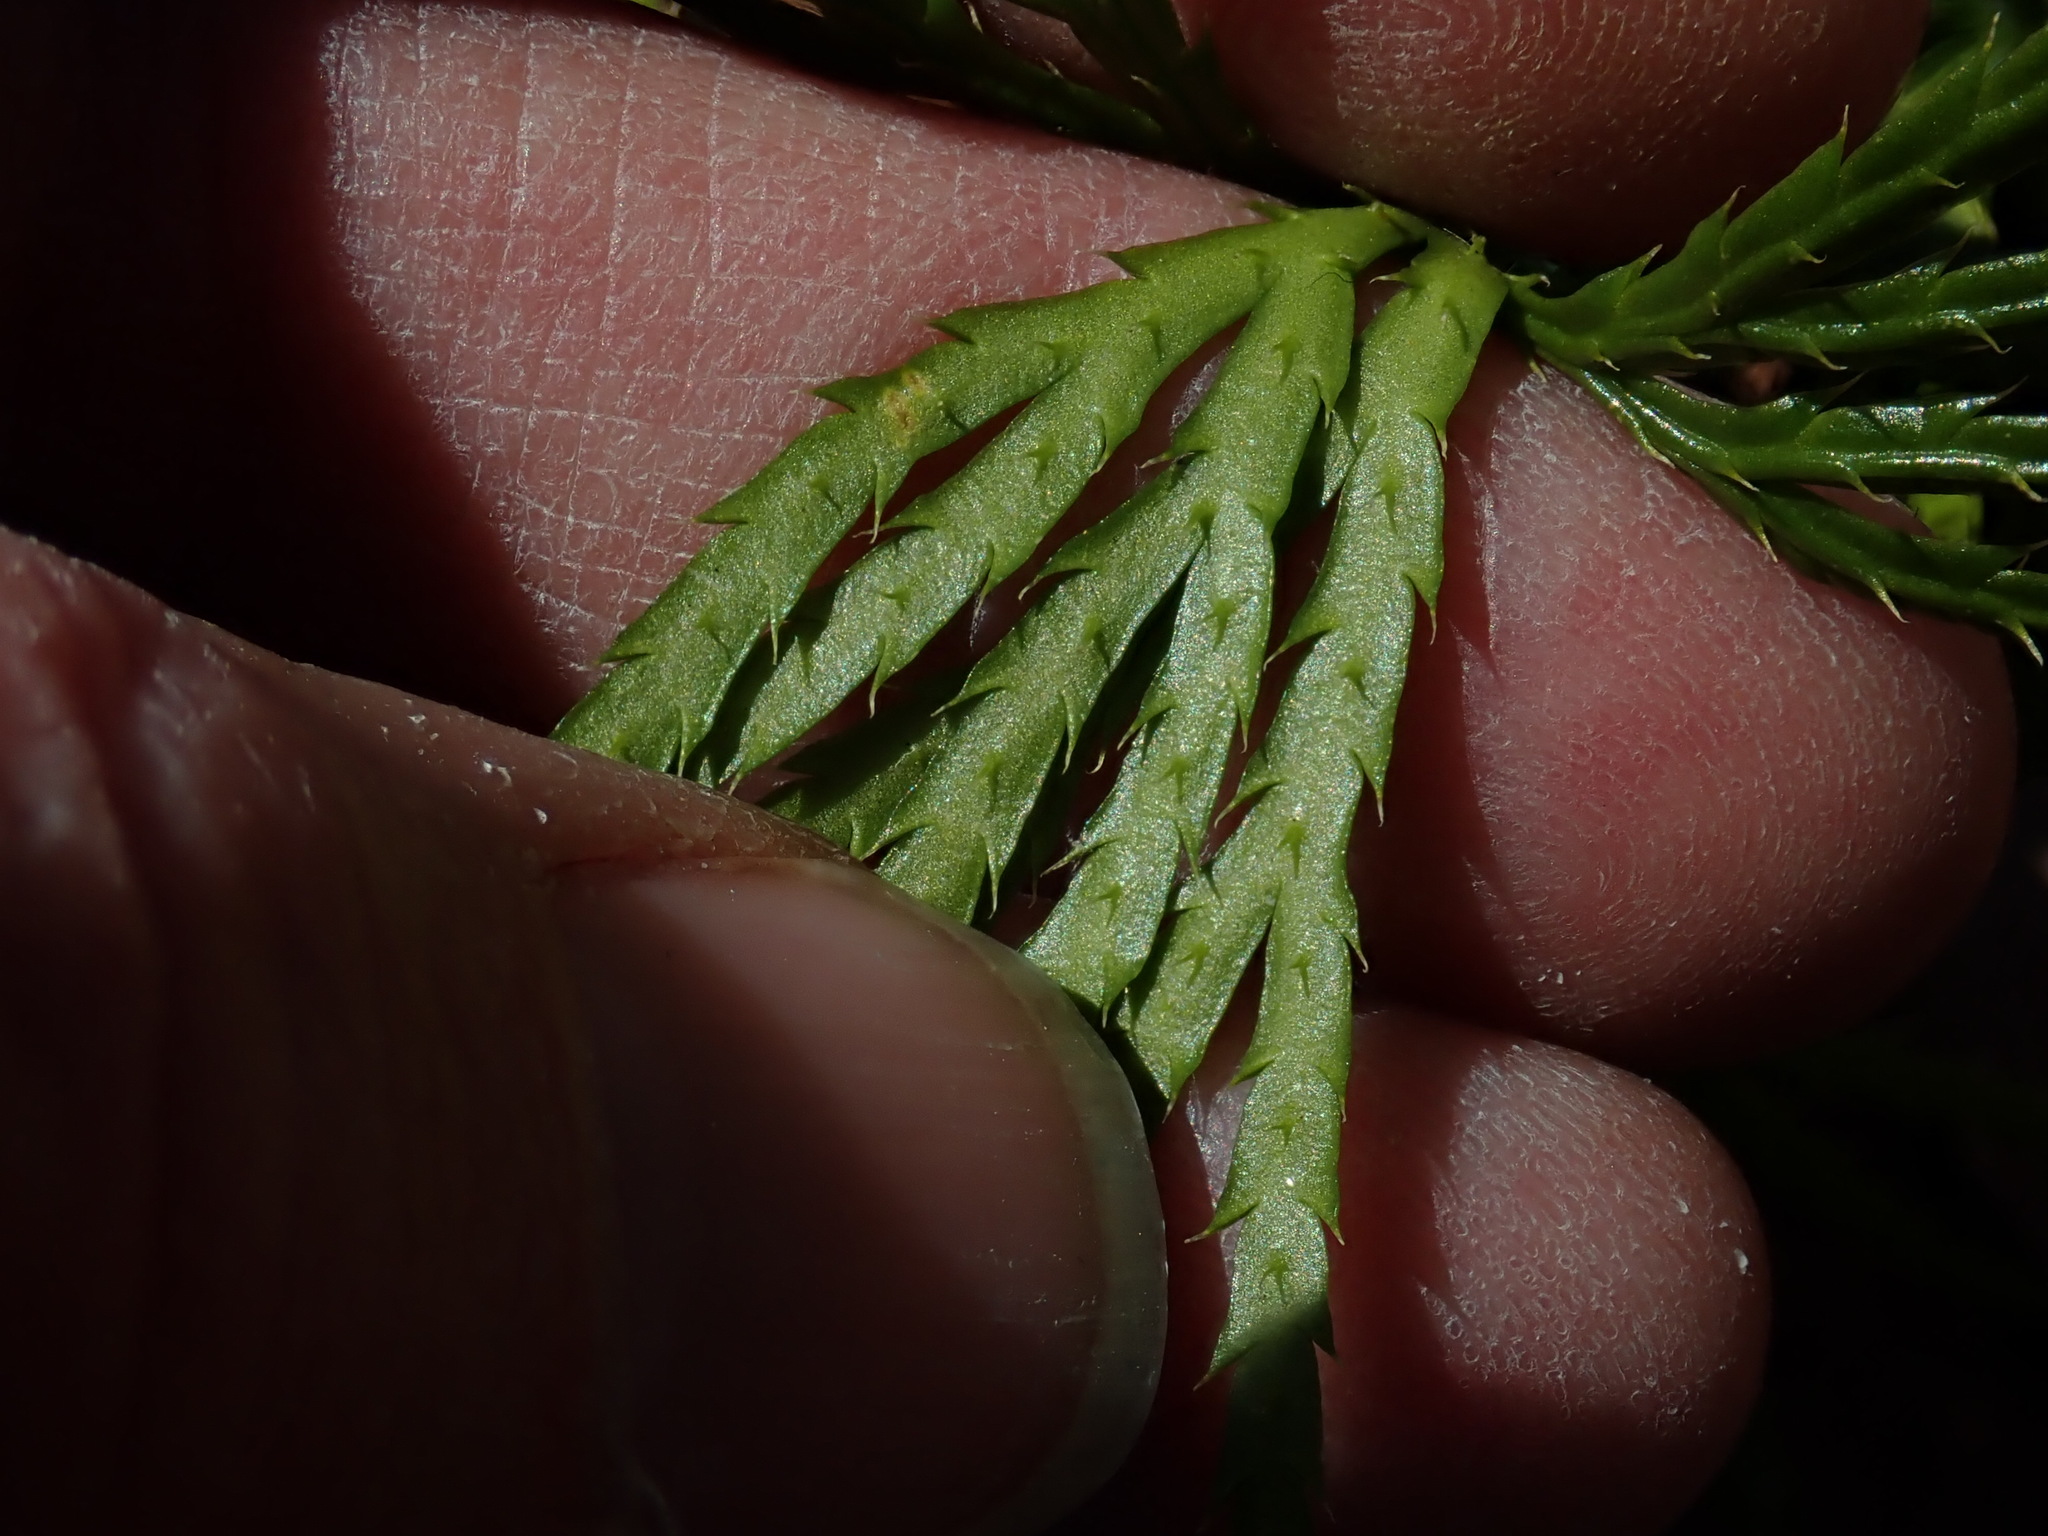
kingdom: Plantae
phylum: Tracheophyta
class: Lycopodiopsida
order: Lycopodiales
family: Lycopodiaceae
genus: Diphasiastrum
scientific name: Diphasiastrum digitatum
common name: Southern running-pine
